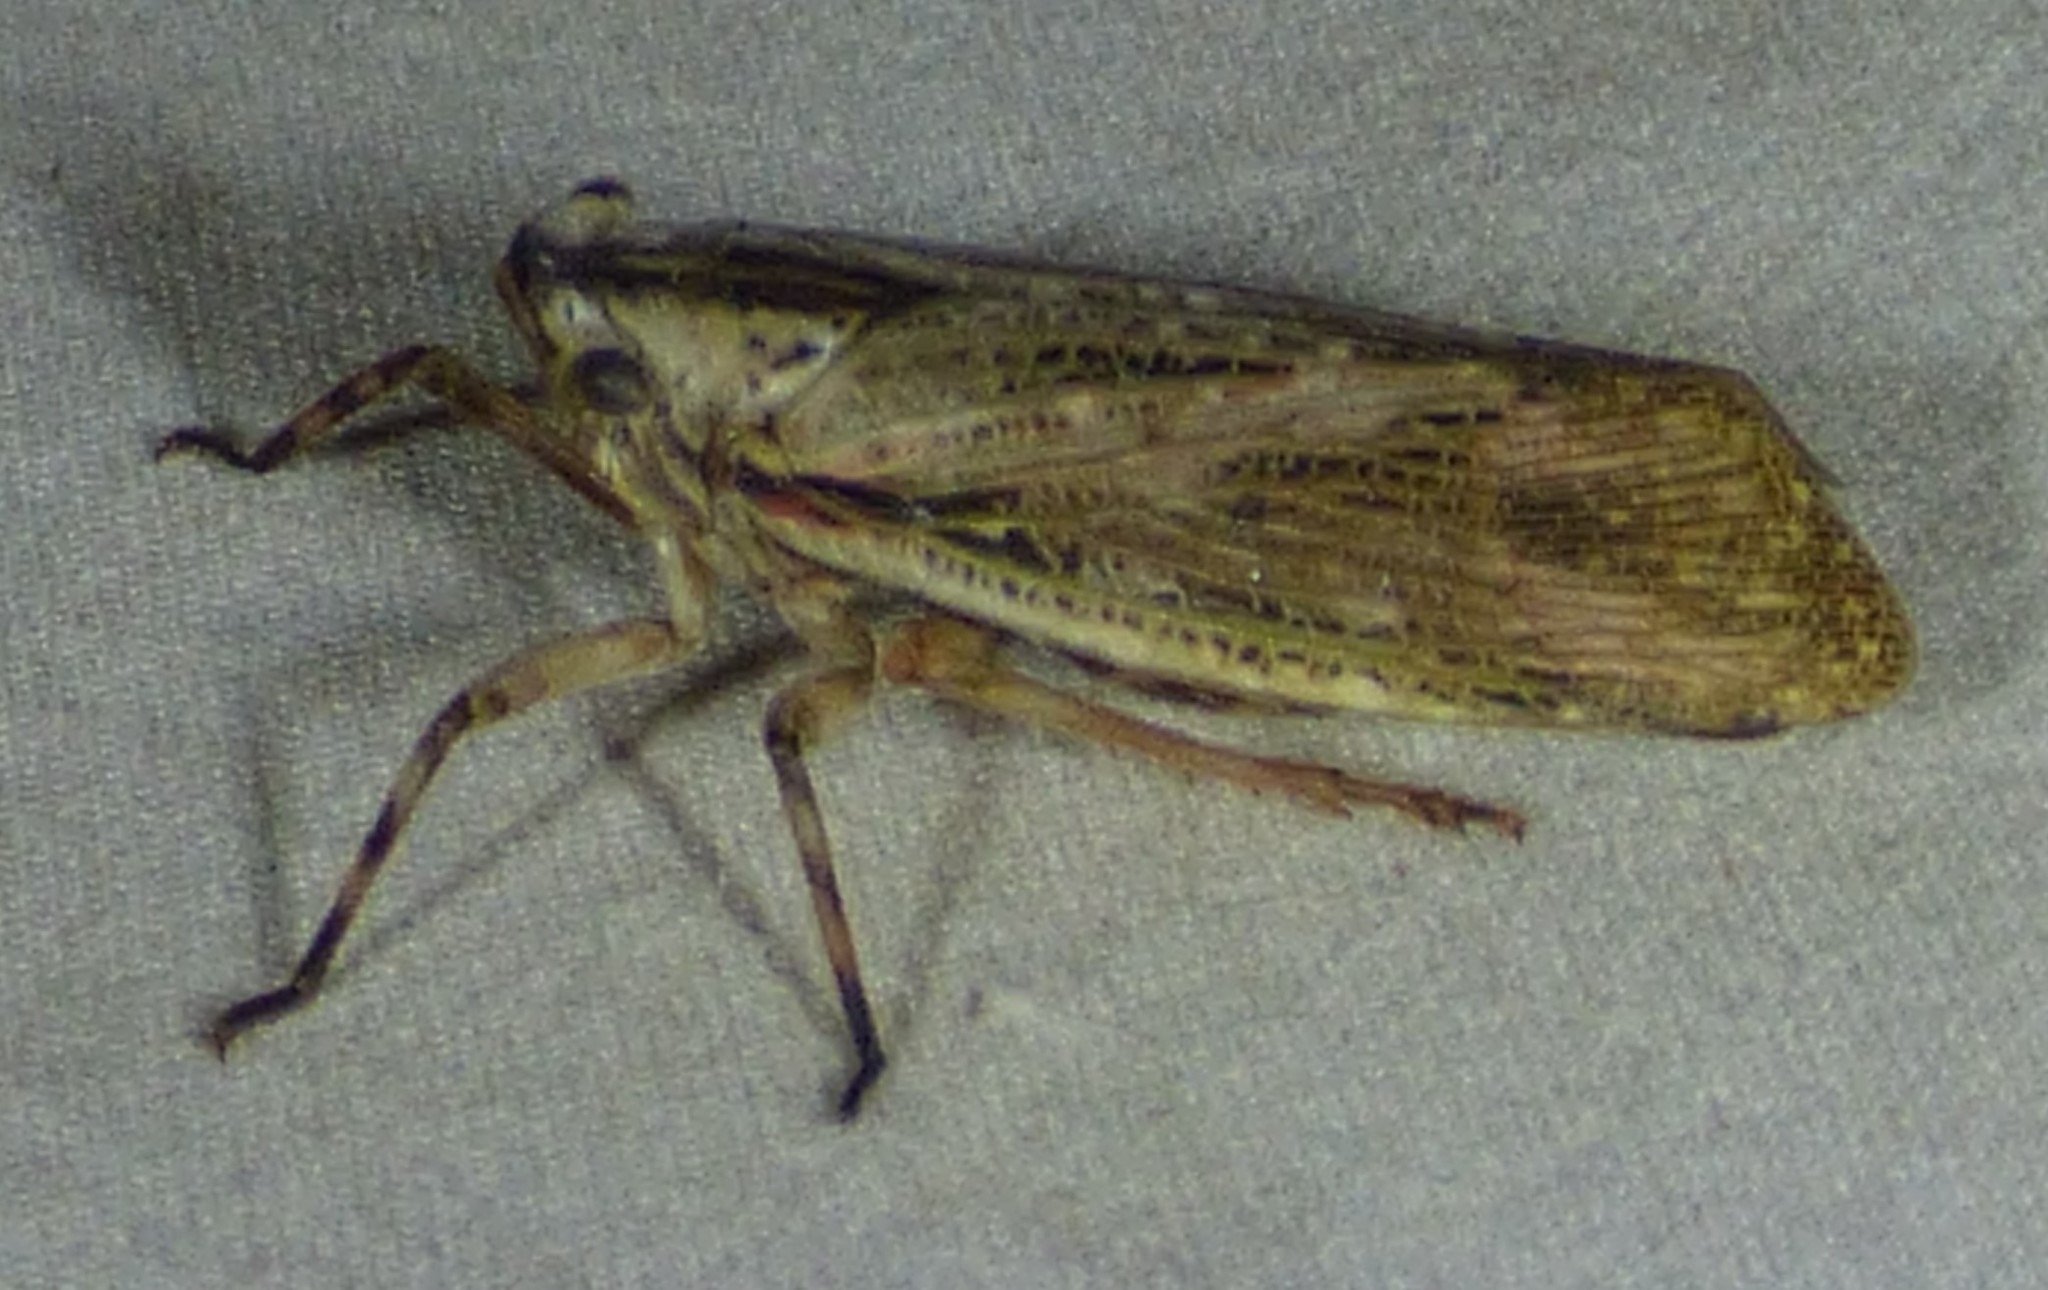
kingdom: Animalia
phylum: Arthropoda
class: Insecta
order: Hemiptera
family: Fulgoridae
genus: Poblicia
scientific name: Poblicia texana
